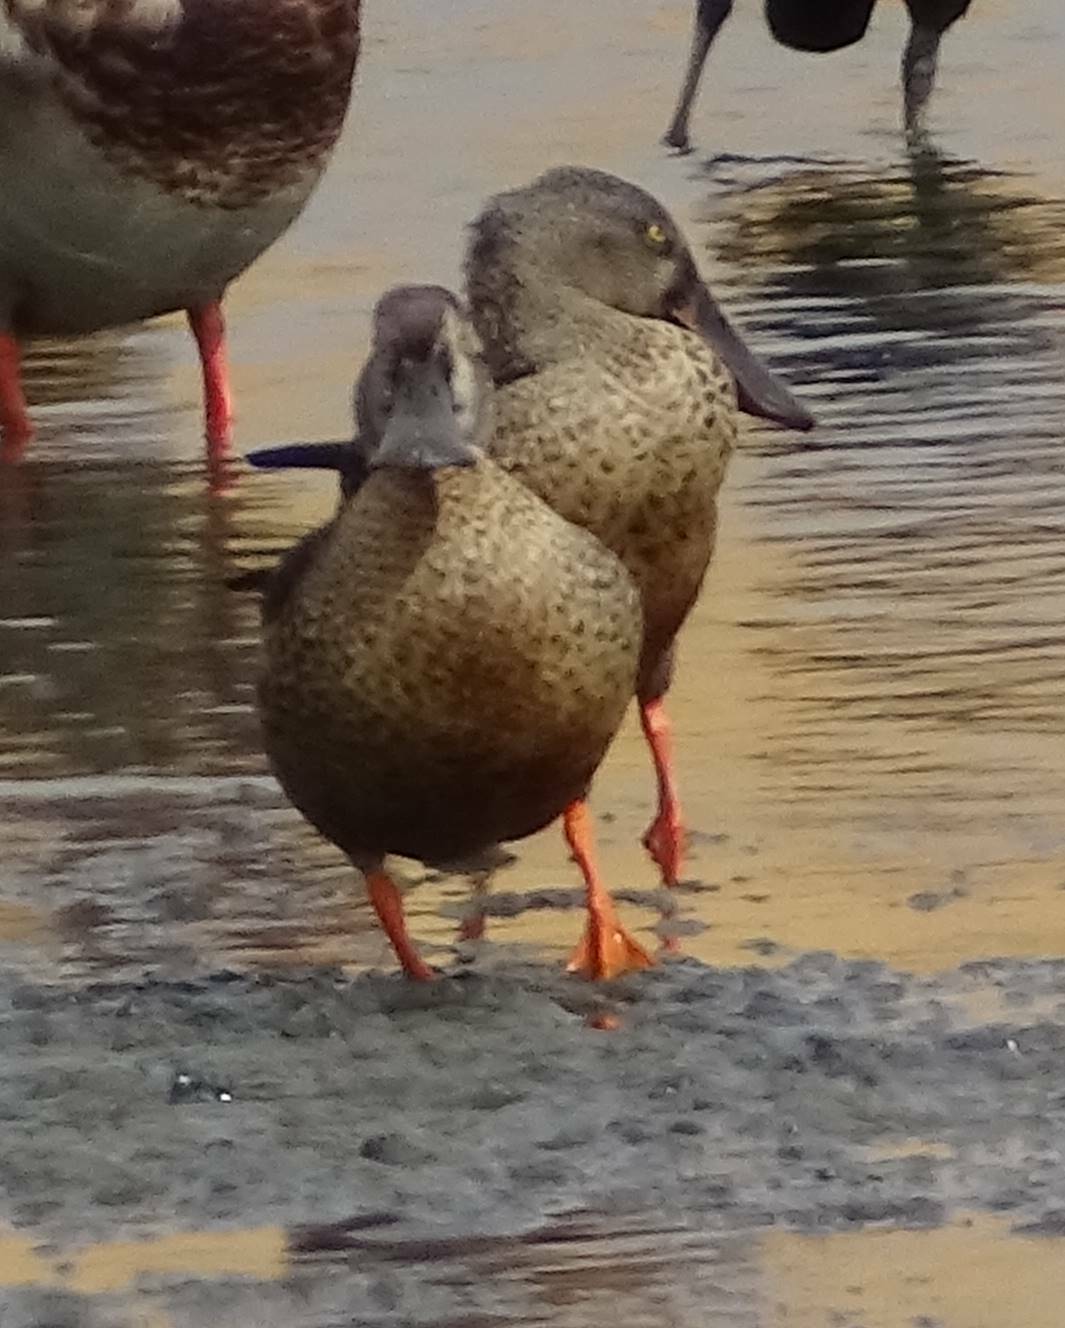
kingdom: Animalia
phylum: Chordata
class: Aves
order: Anseriformes
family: Anatidae
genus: Spatula
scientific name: Spatula clypeata
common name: Northern shoveler
